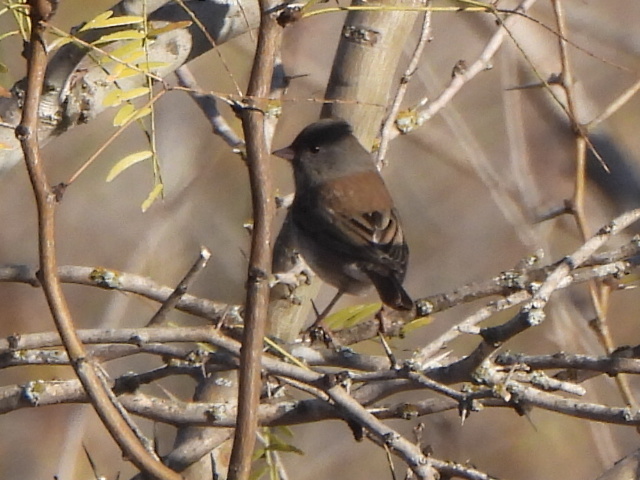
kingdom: Animalia
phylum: Chordata
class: Aves
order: Passeriformes
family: Passerellidae
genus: Junco
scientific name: Junco hyemalis
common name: Dark-eyed junco
